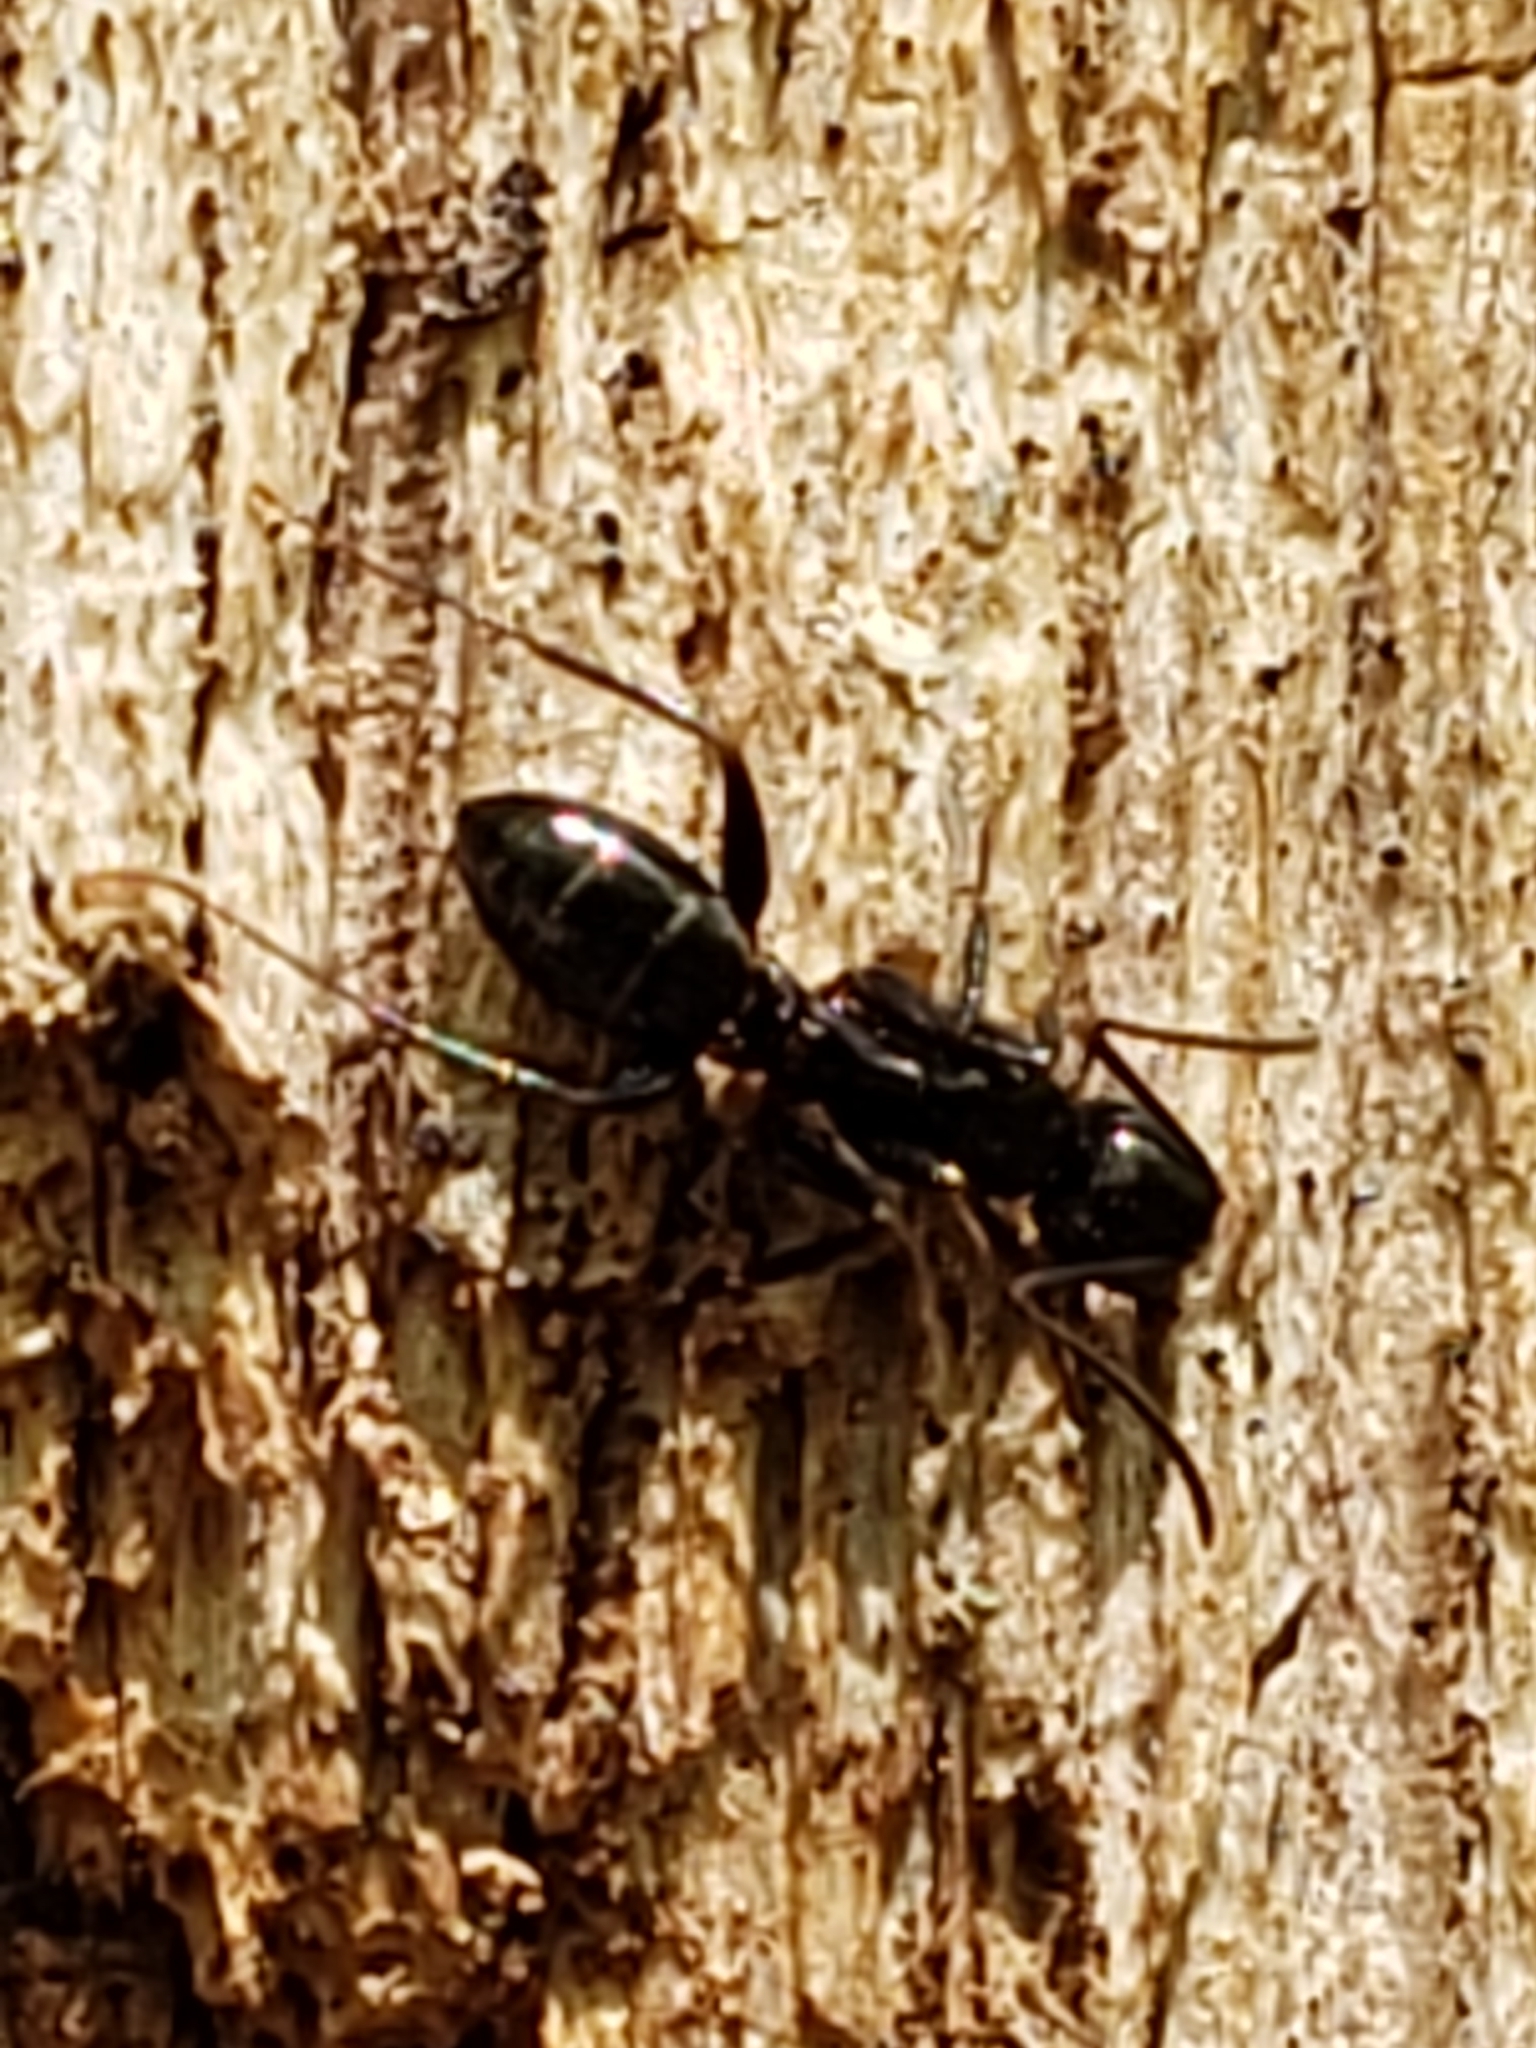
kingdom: Animalia
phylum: Arthropoda
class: Insecta
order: Hymenoptera
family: Formicidae
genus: Camponotus
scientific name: Camponotus nearcticus
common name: Smaller carpenter ant
